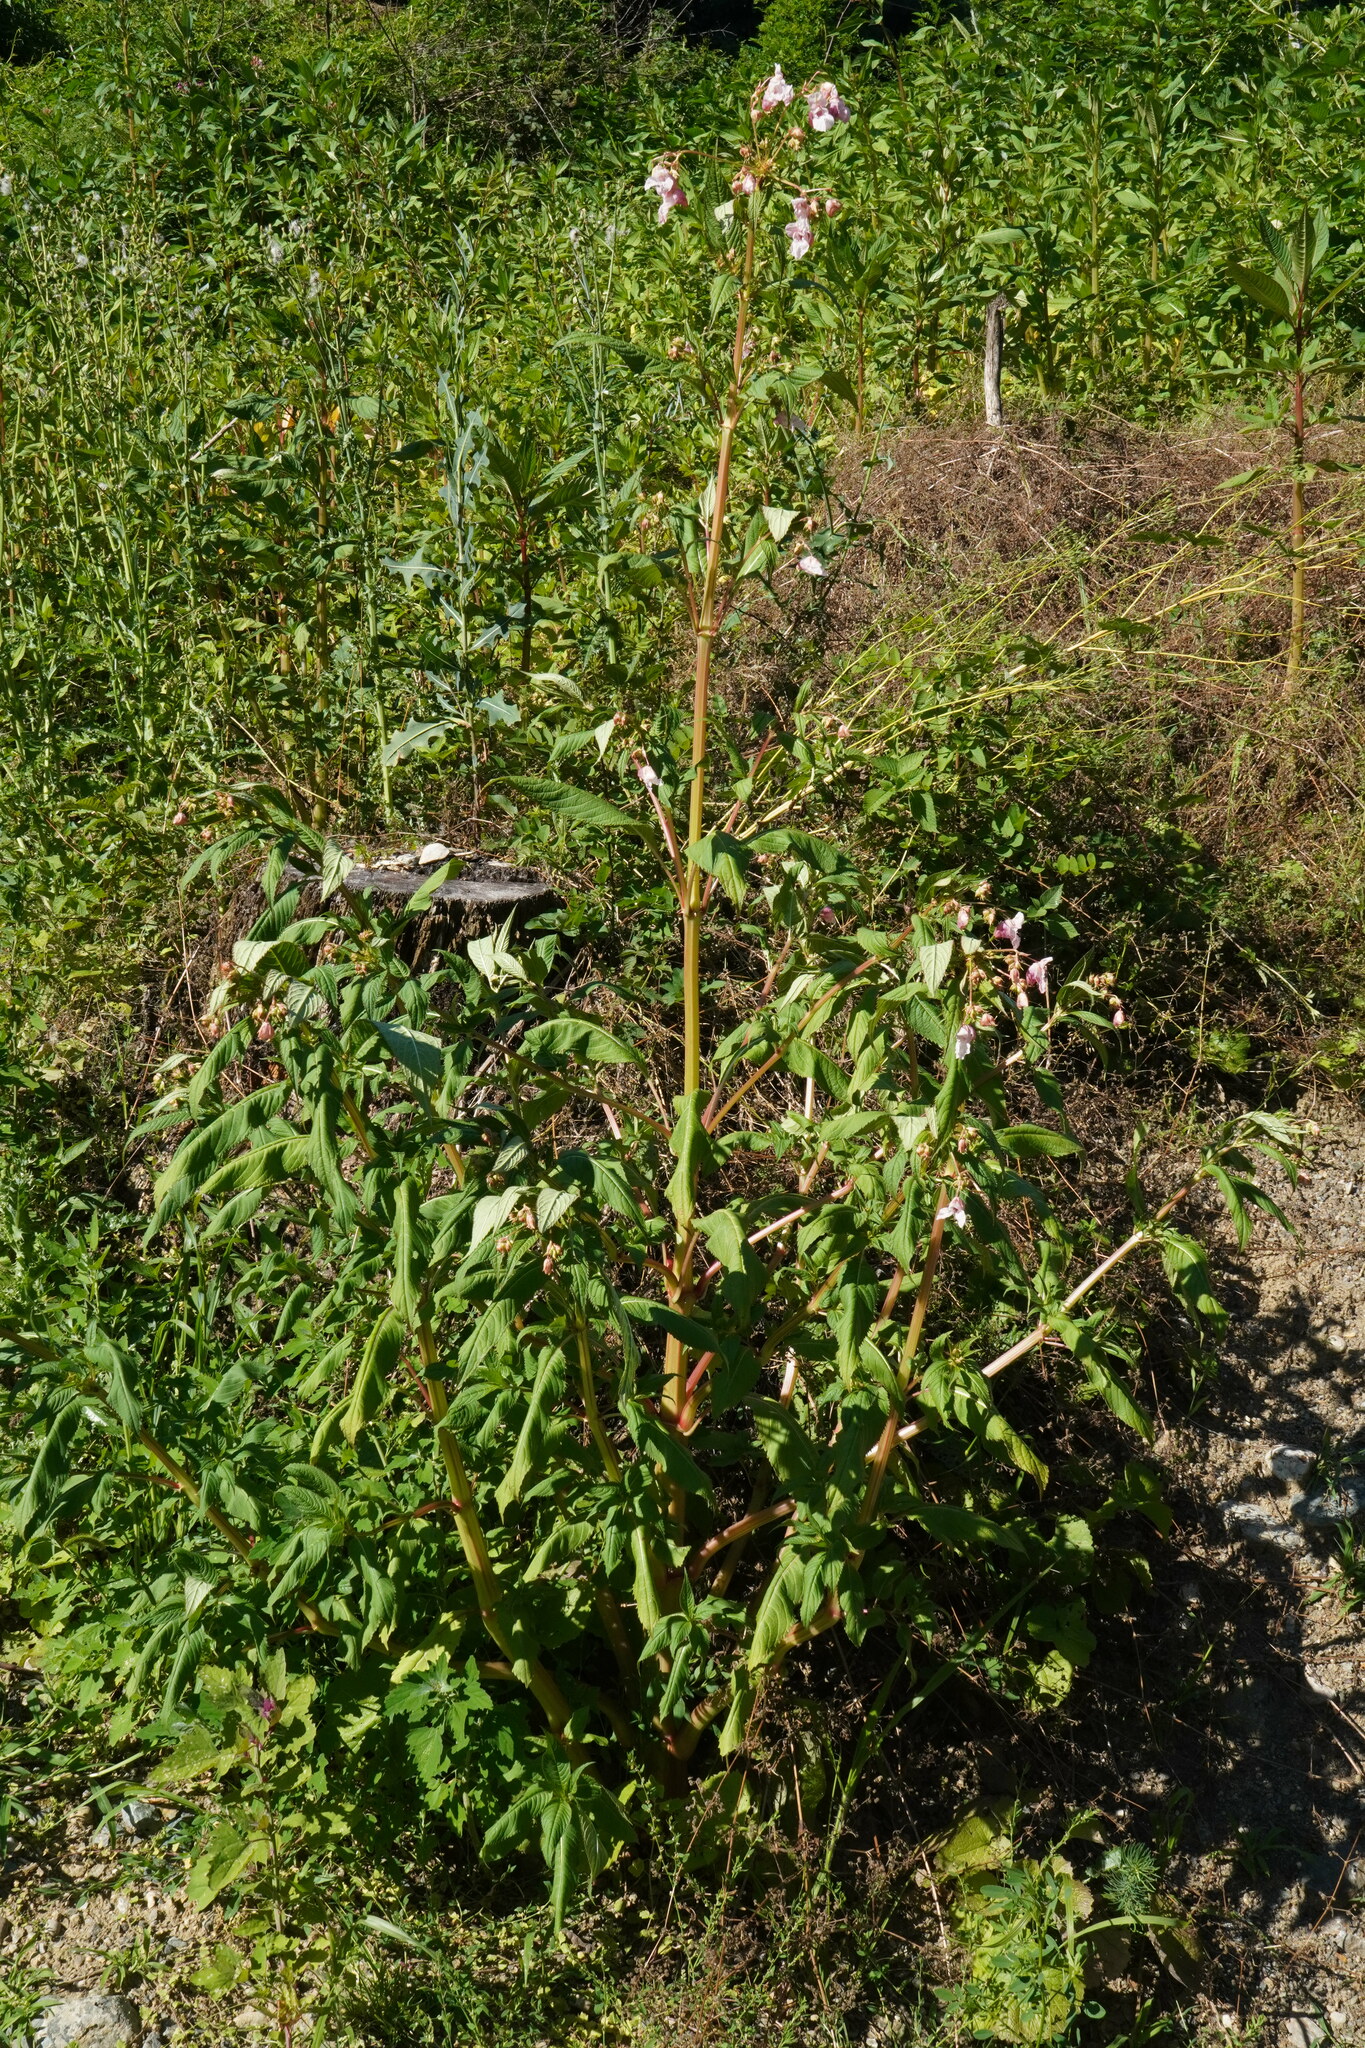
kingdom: Plantae
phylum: Tracheophyta
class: Magnoliopsida
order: Ericales
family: Balsaminaceae
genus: Impatiens
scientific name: Impatiens glandulifera
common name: Himalayan balsam
